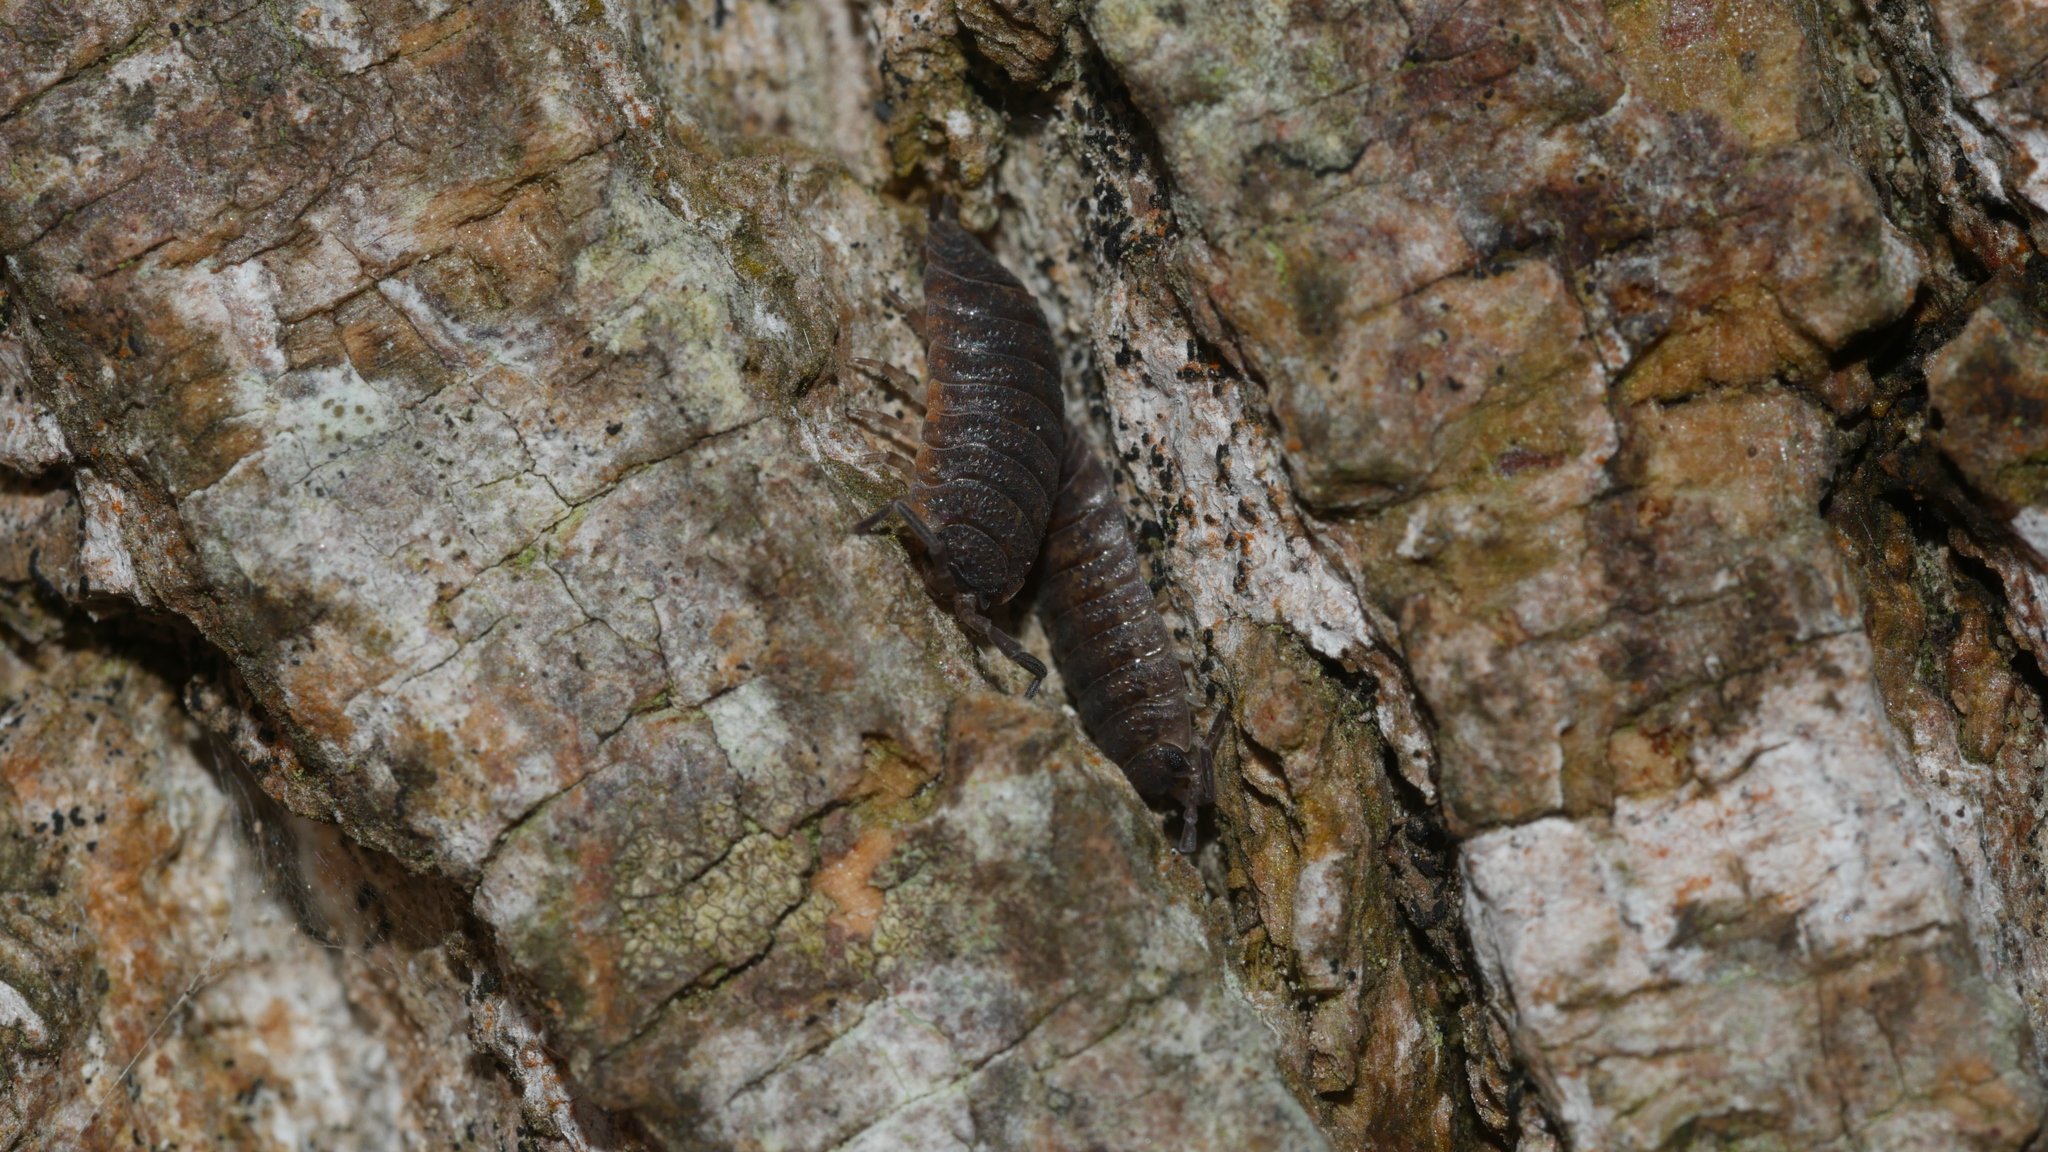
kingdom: Animalia
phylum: Arthropoda
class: Malacostraca
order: Isopoda
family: Porcellionidae
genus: Porcellio
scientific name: Porcellio scaber
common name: Common rough woodlouse
